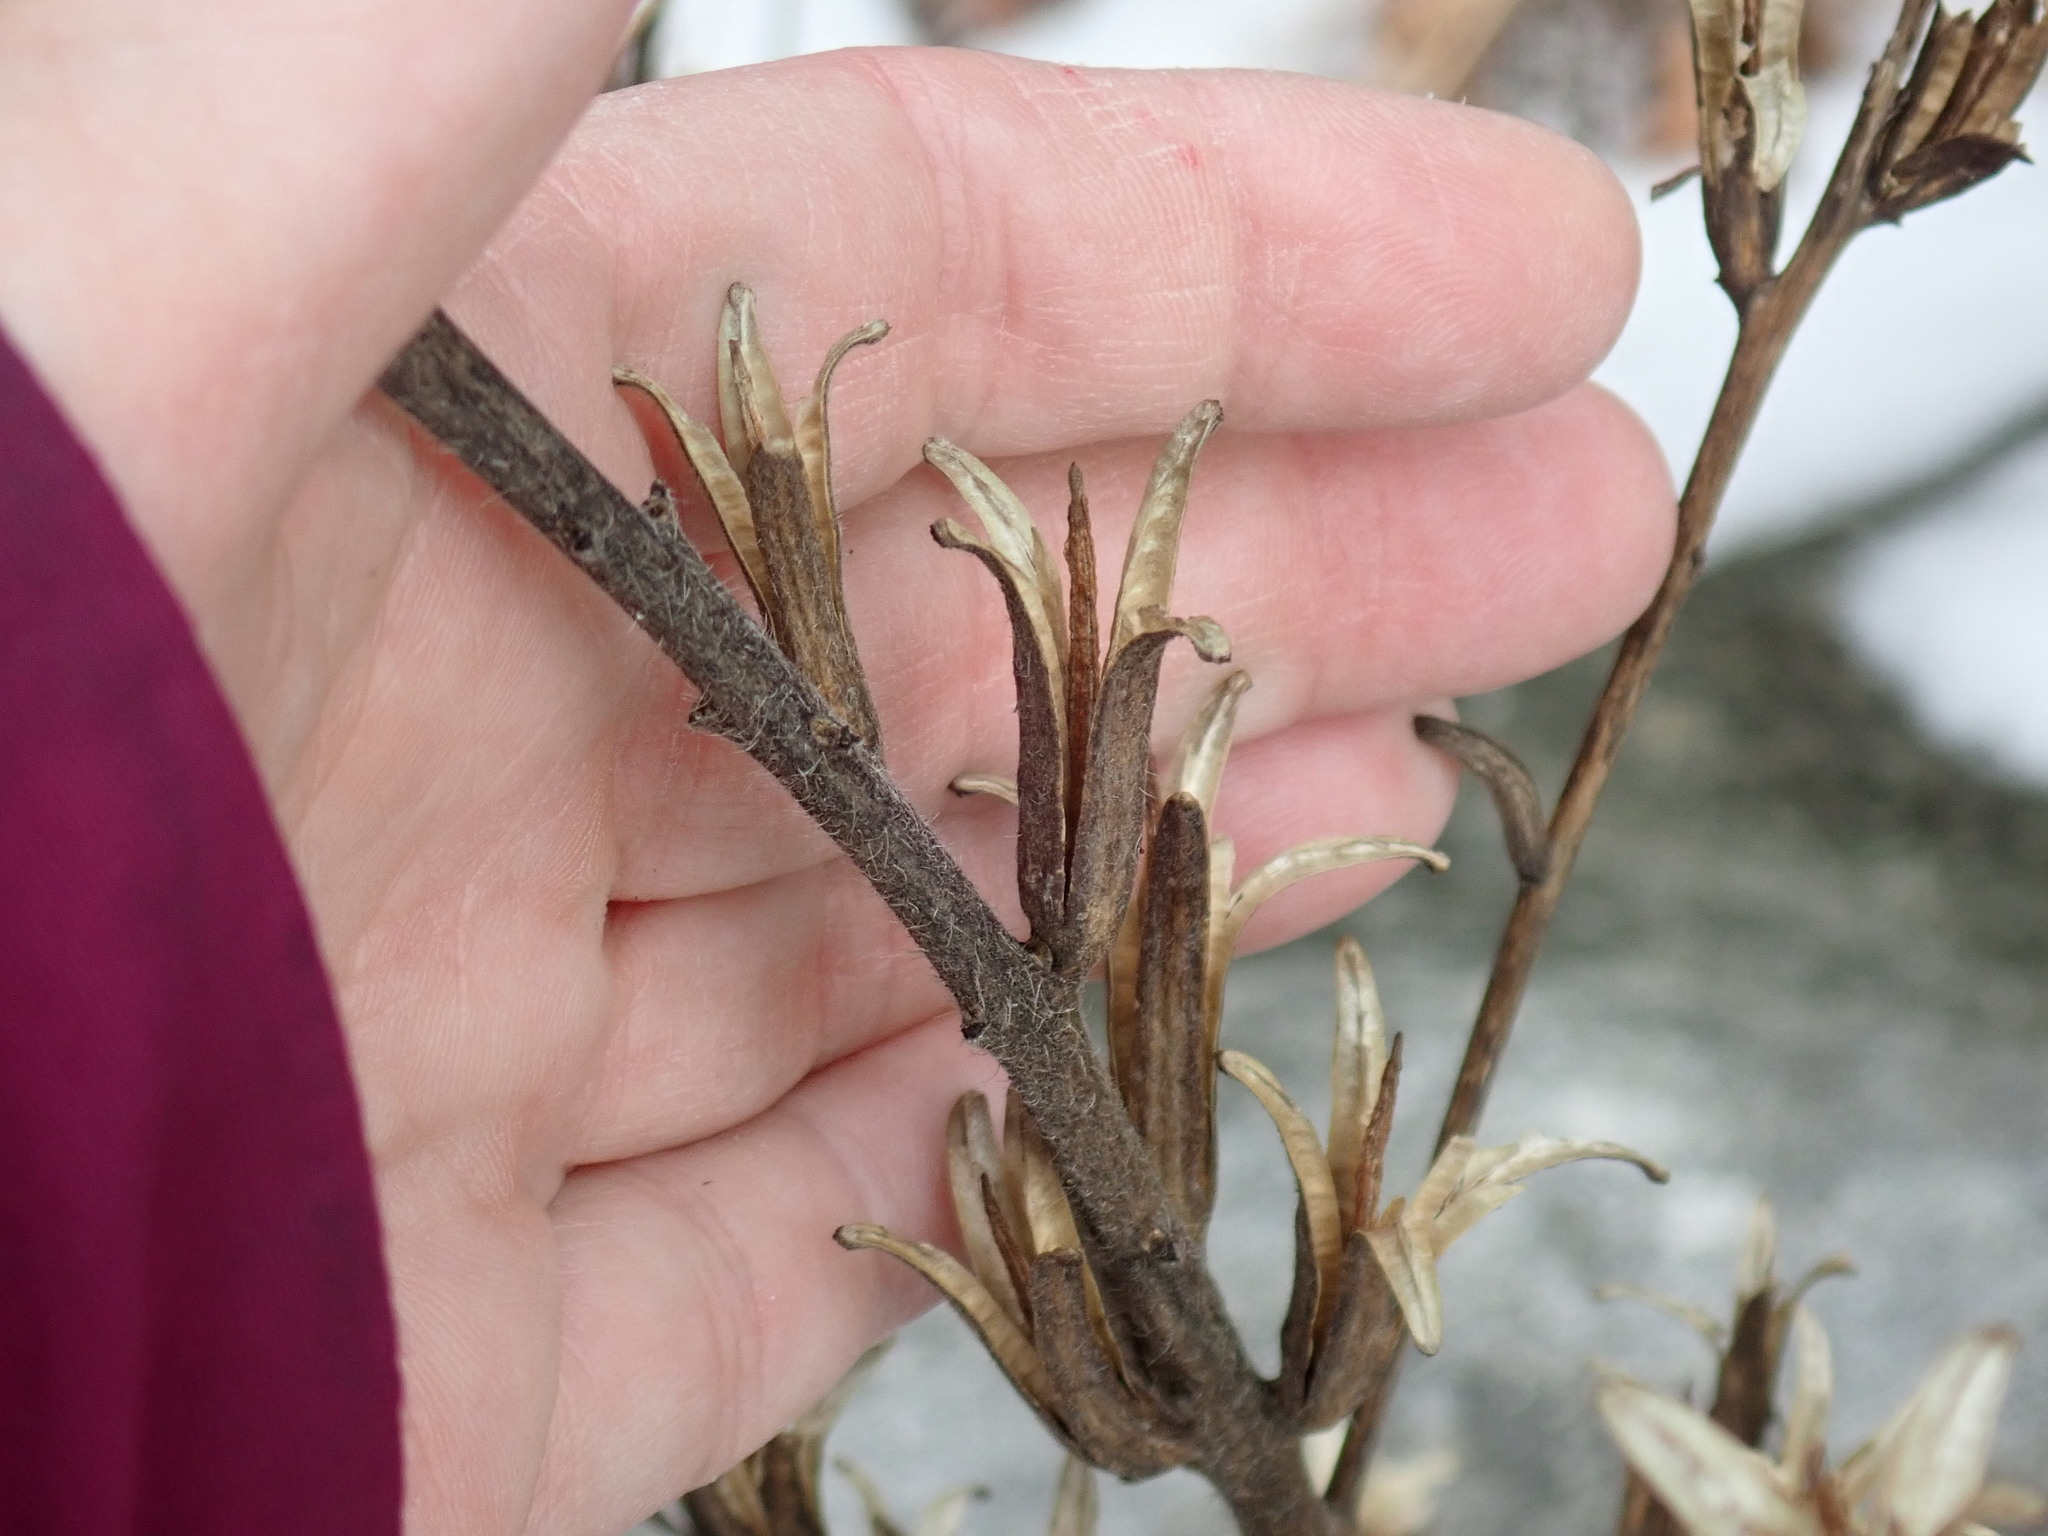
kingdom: Plantae
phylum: Tracheophyta
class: Magnoliopsida
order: Myrtales
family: Onagraceae
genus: Oenothera
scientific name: Oenothera biennis
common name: Common evening-primrose
